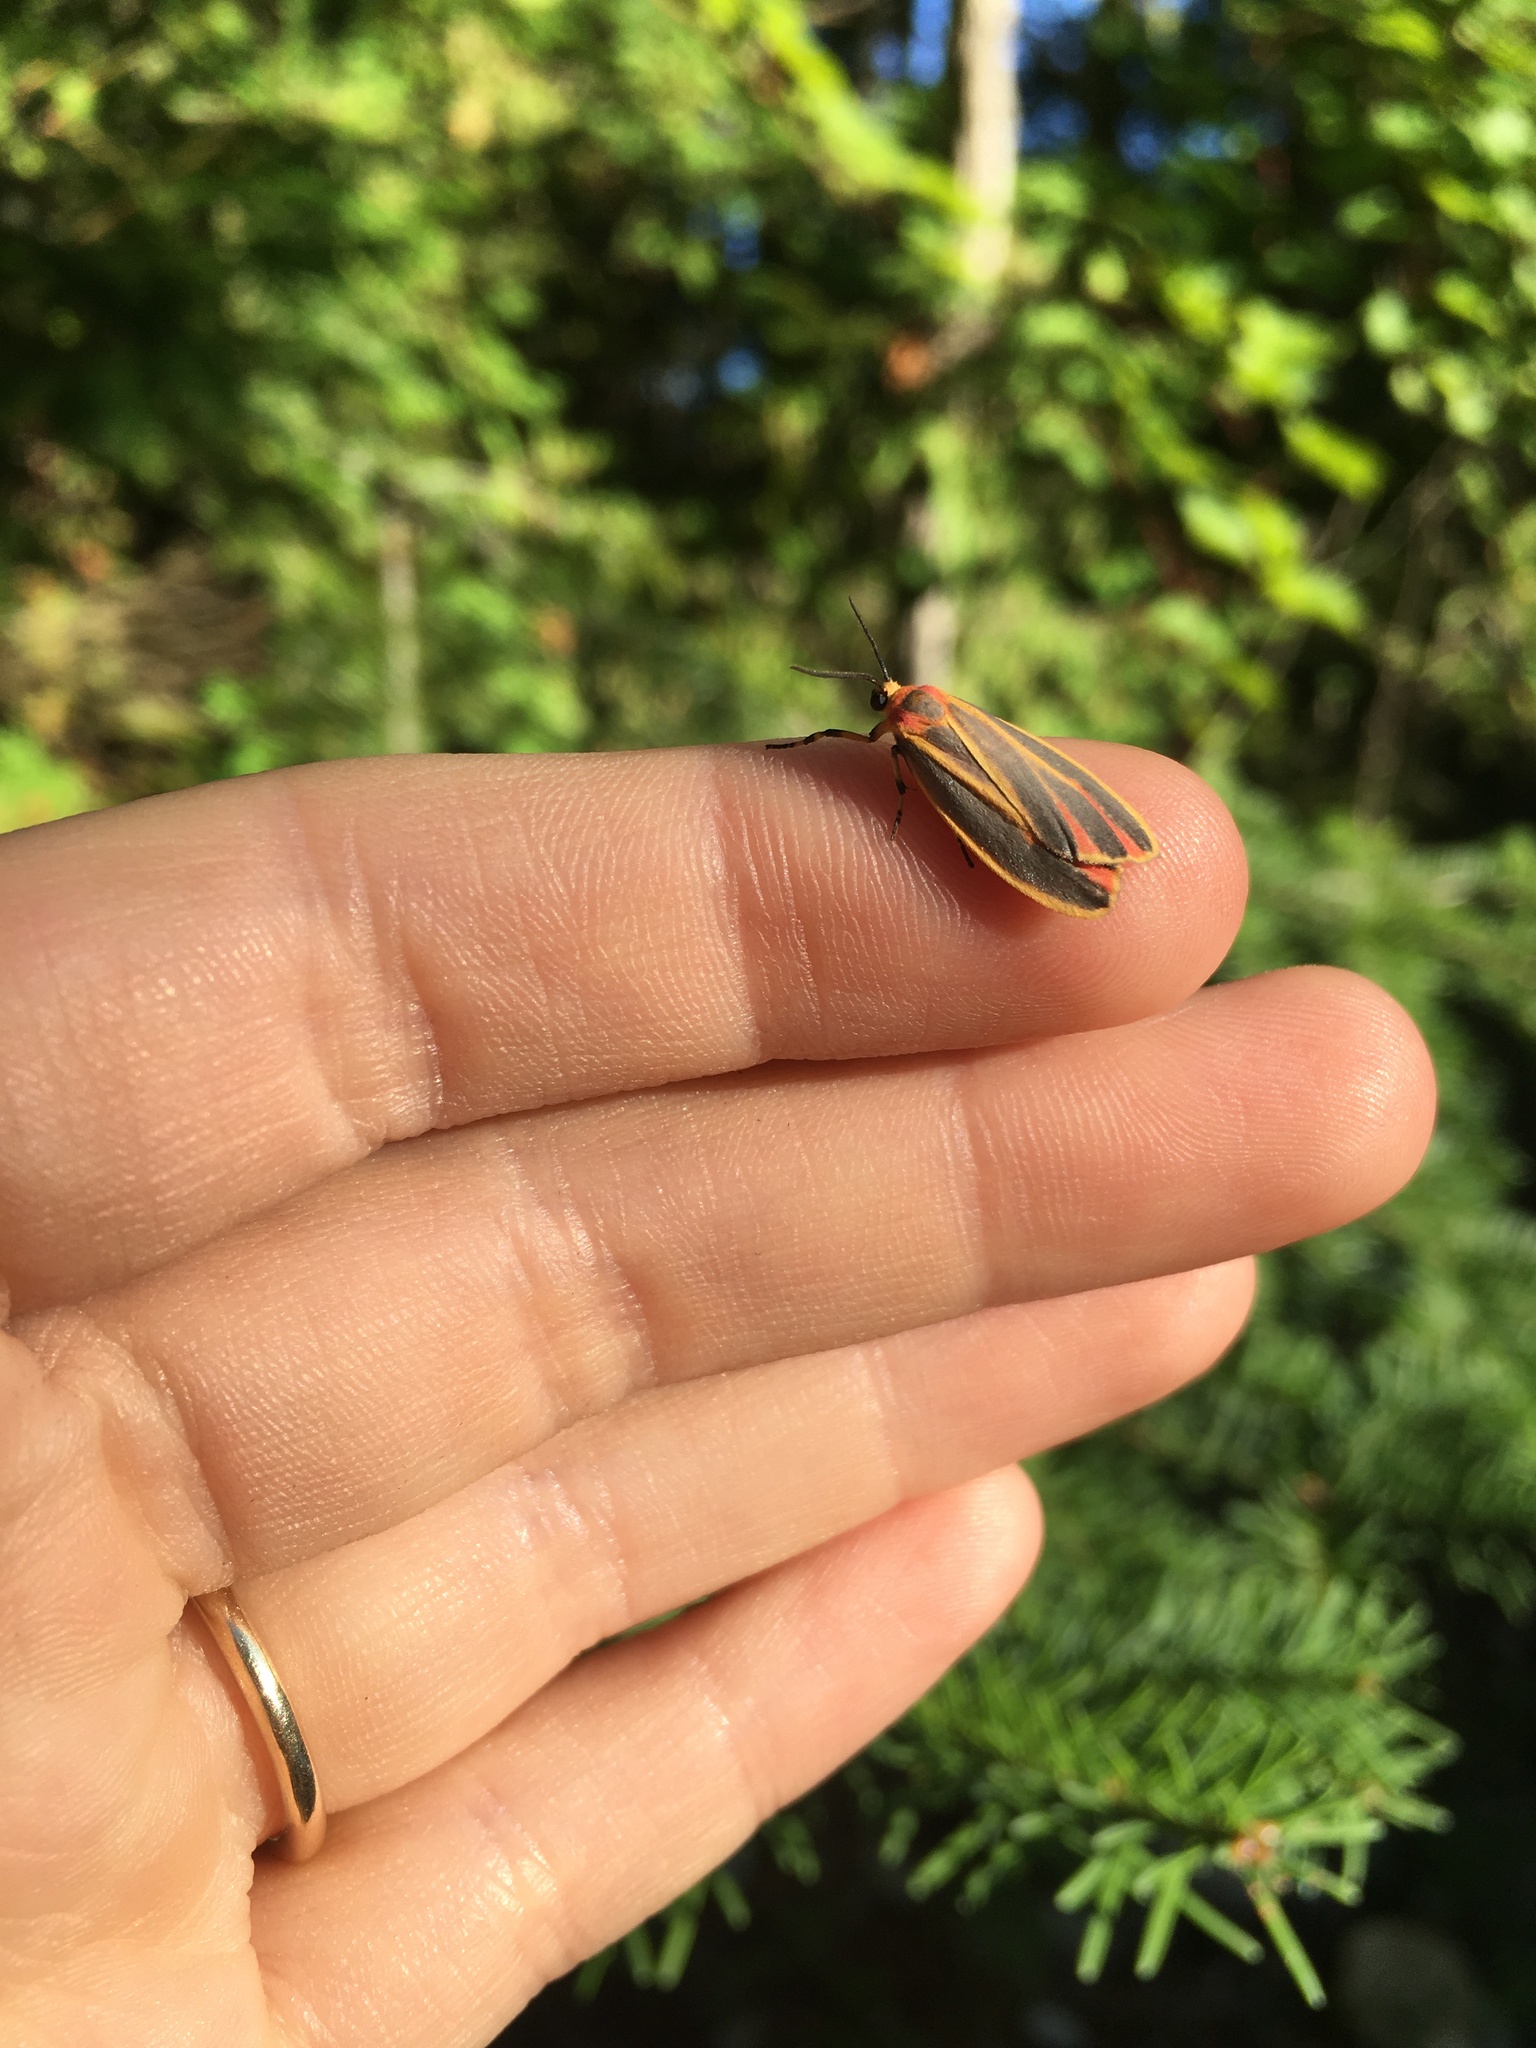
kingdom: Animalia
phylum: Arthropoda
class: Insecta
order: Lepidoptera
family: Erebidae
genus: Hypoprepia
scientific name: Hypoprepia fucosa
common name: Painted lichen moth
